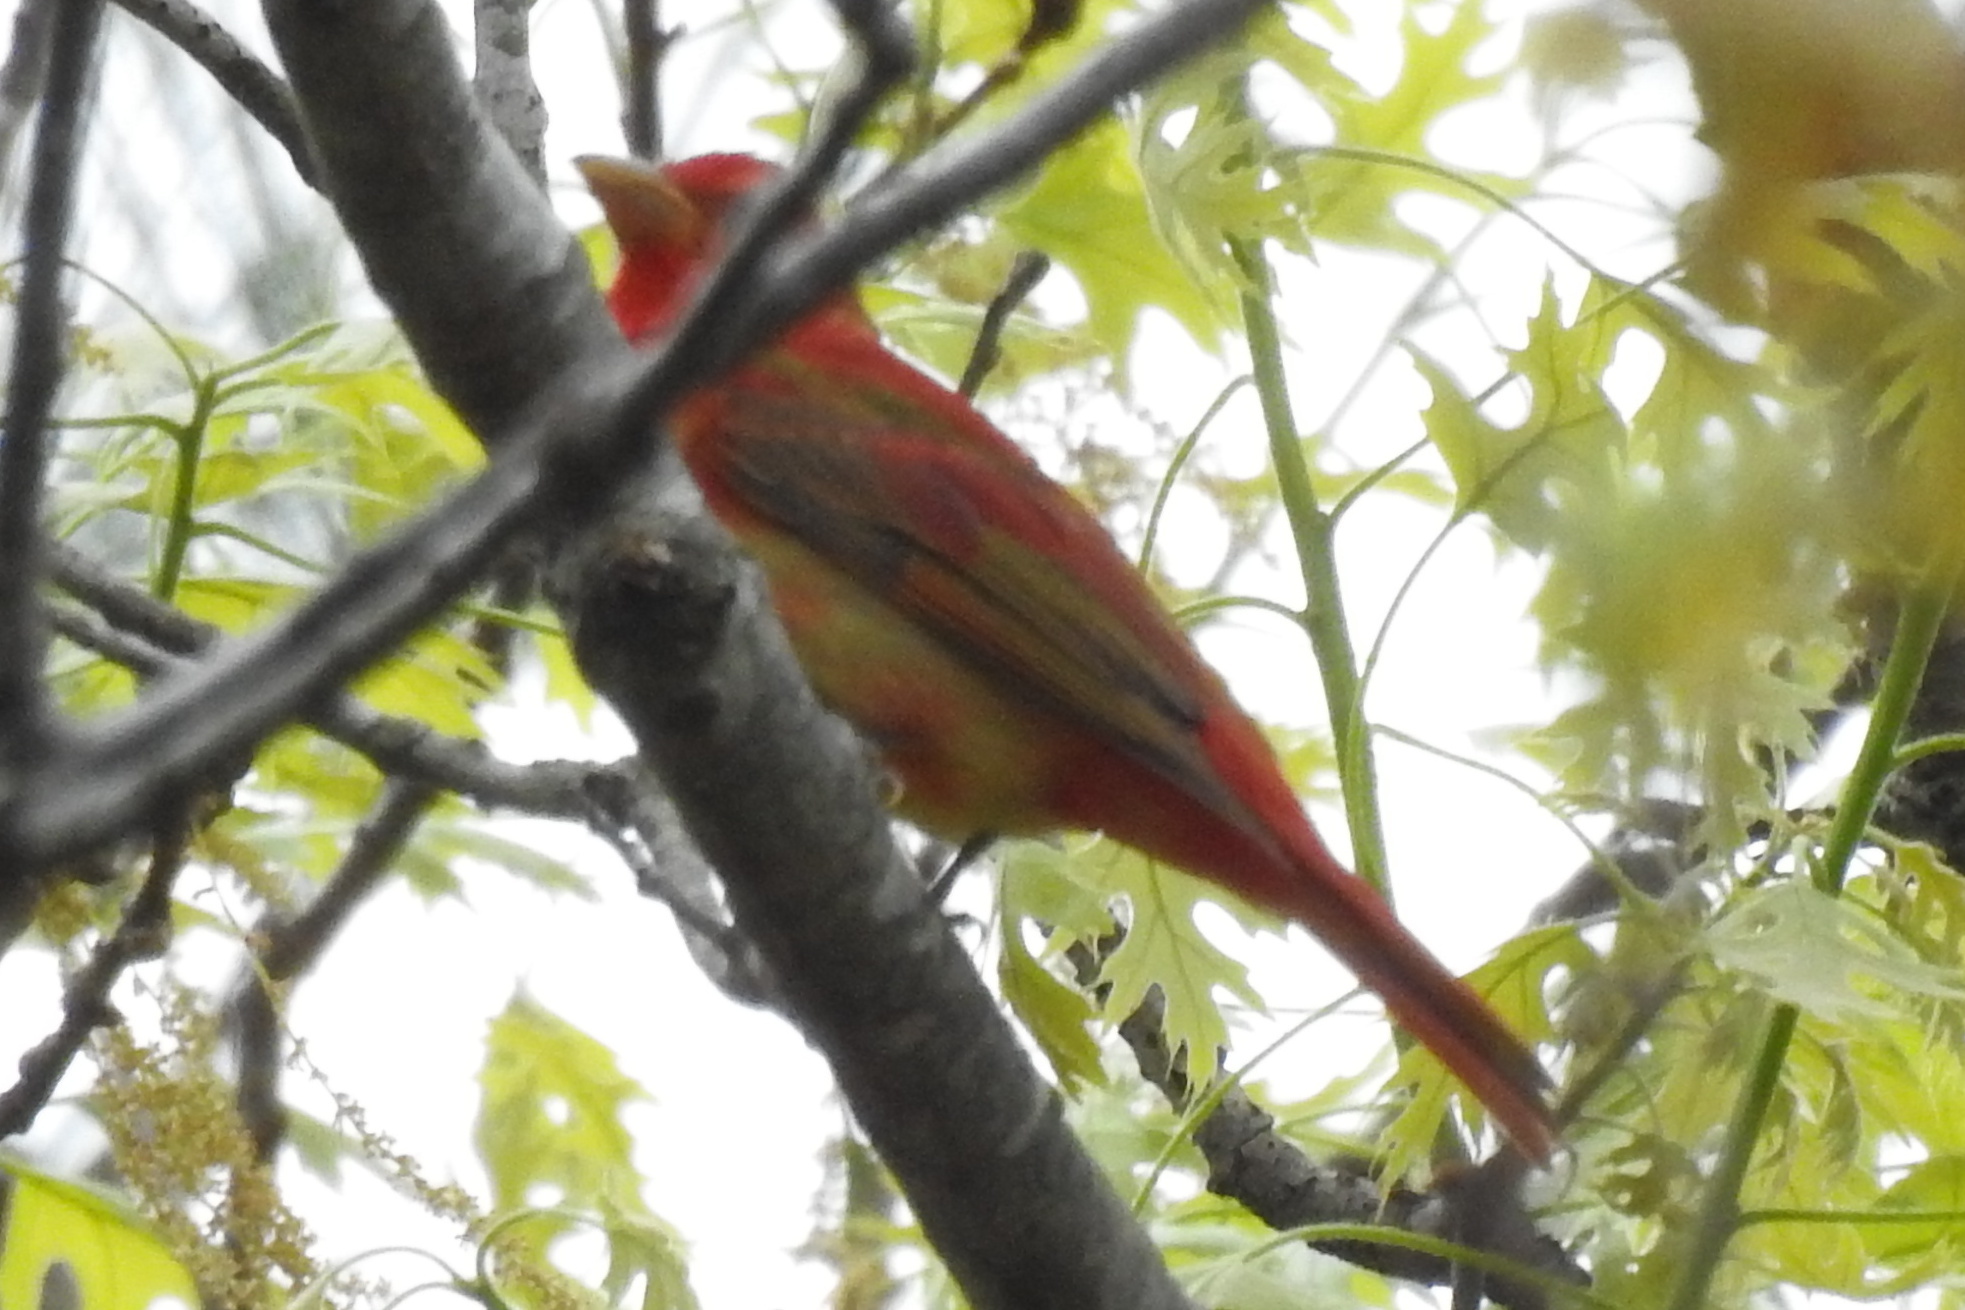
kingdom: Animalia
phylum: Chordata
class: Aves
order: Passeriformes
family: Cardinalidae
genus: Piranga
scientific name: Piranga rubra
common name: Summer tanager
